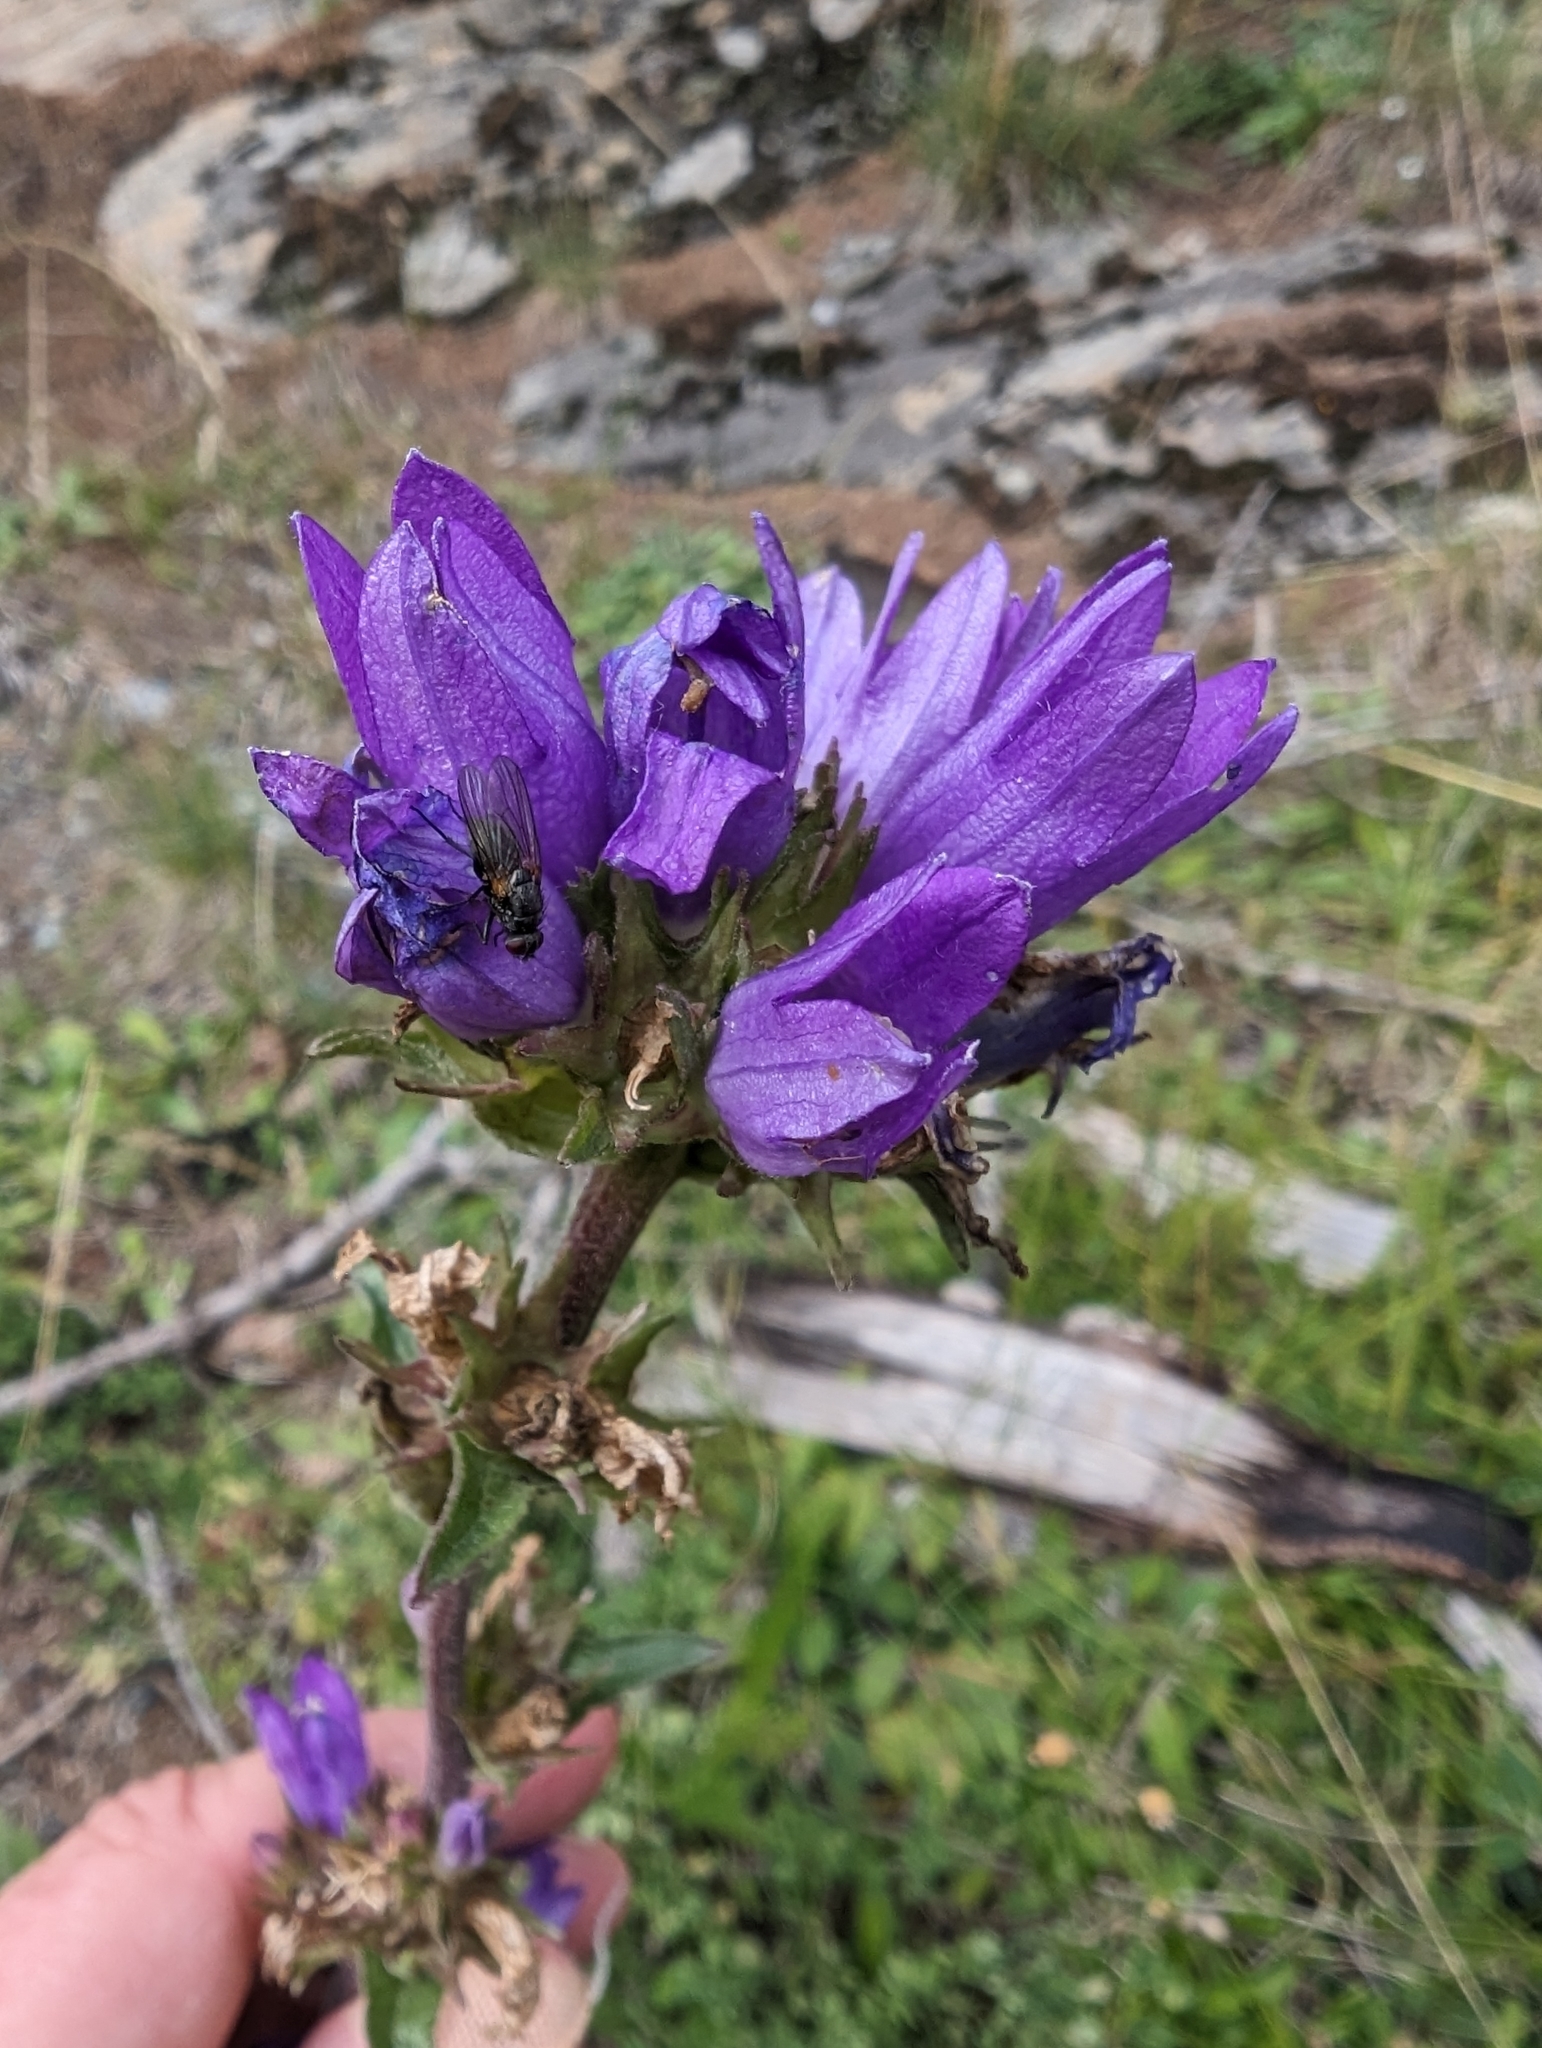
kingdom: Plantae
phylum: Tracheophyta
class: Magnoliopsida
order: Asterales
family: Campanulaceae
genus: Campanula
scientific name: Campanula glomerata
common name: Clustered bellflower
